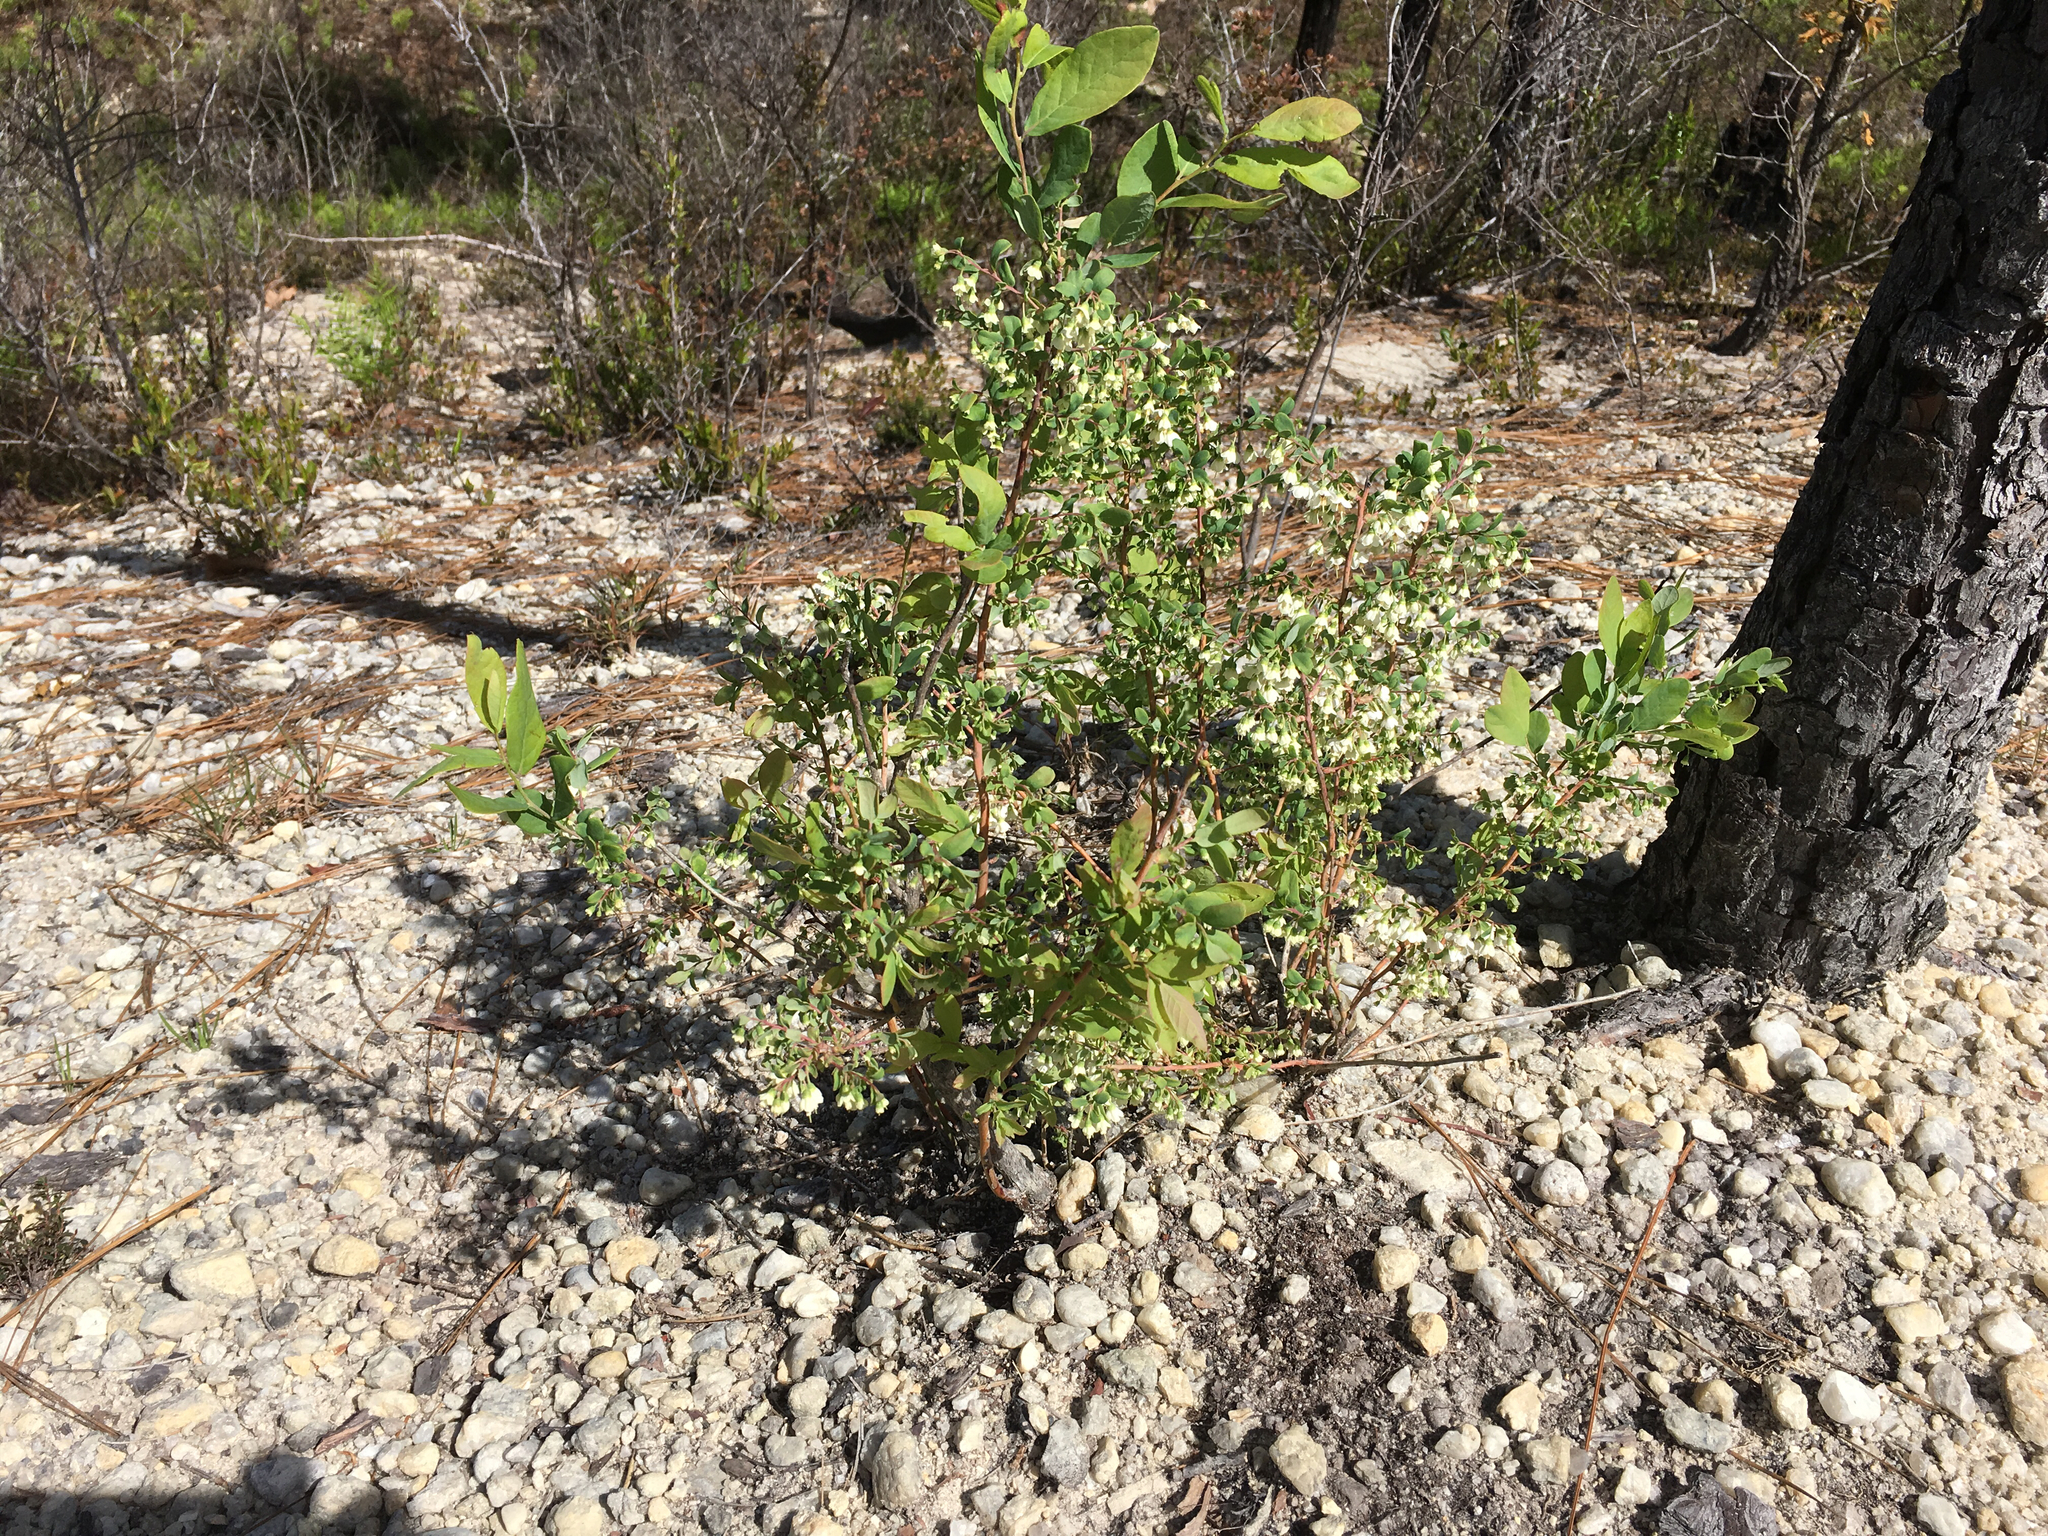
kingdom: Plantae
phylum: Tracheophyta
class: Magnoliopsida
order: Ericales
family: Ericaceae
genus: Vaccinium
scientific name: Vaccinium stamineum
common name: Deerberry
